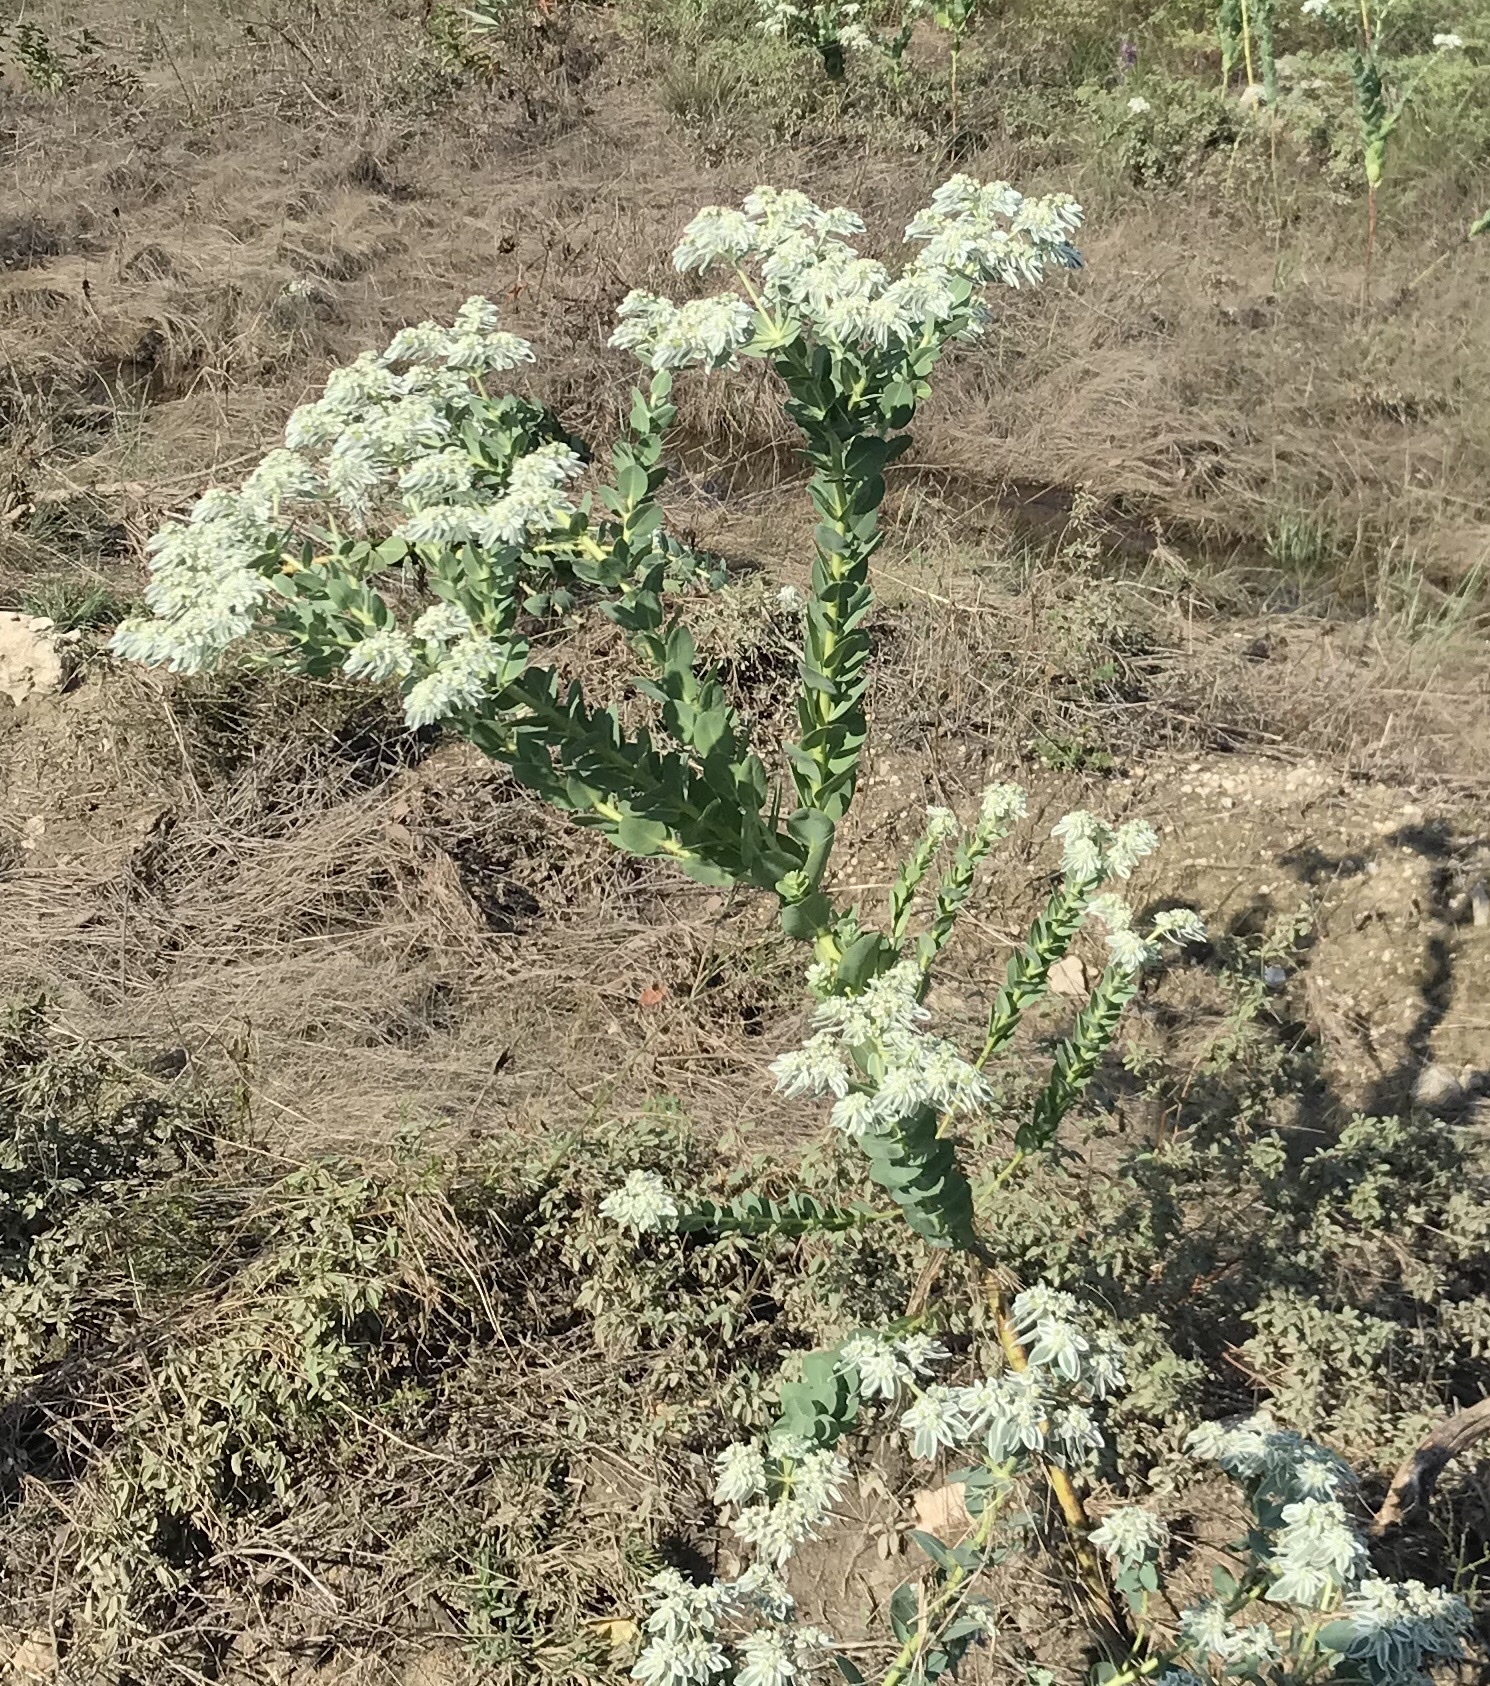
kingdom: Plantae
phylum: Tracheophyta
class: Magnoliopsida
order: Malpighiales
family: Euphorbiaceae
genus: Euphorbia
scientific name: Euphorbia marginata
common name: Ghostweed
